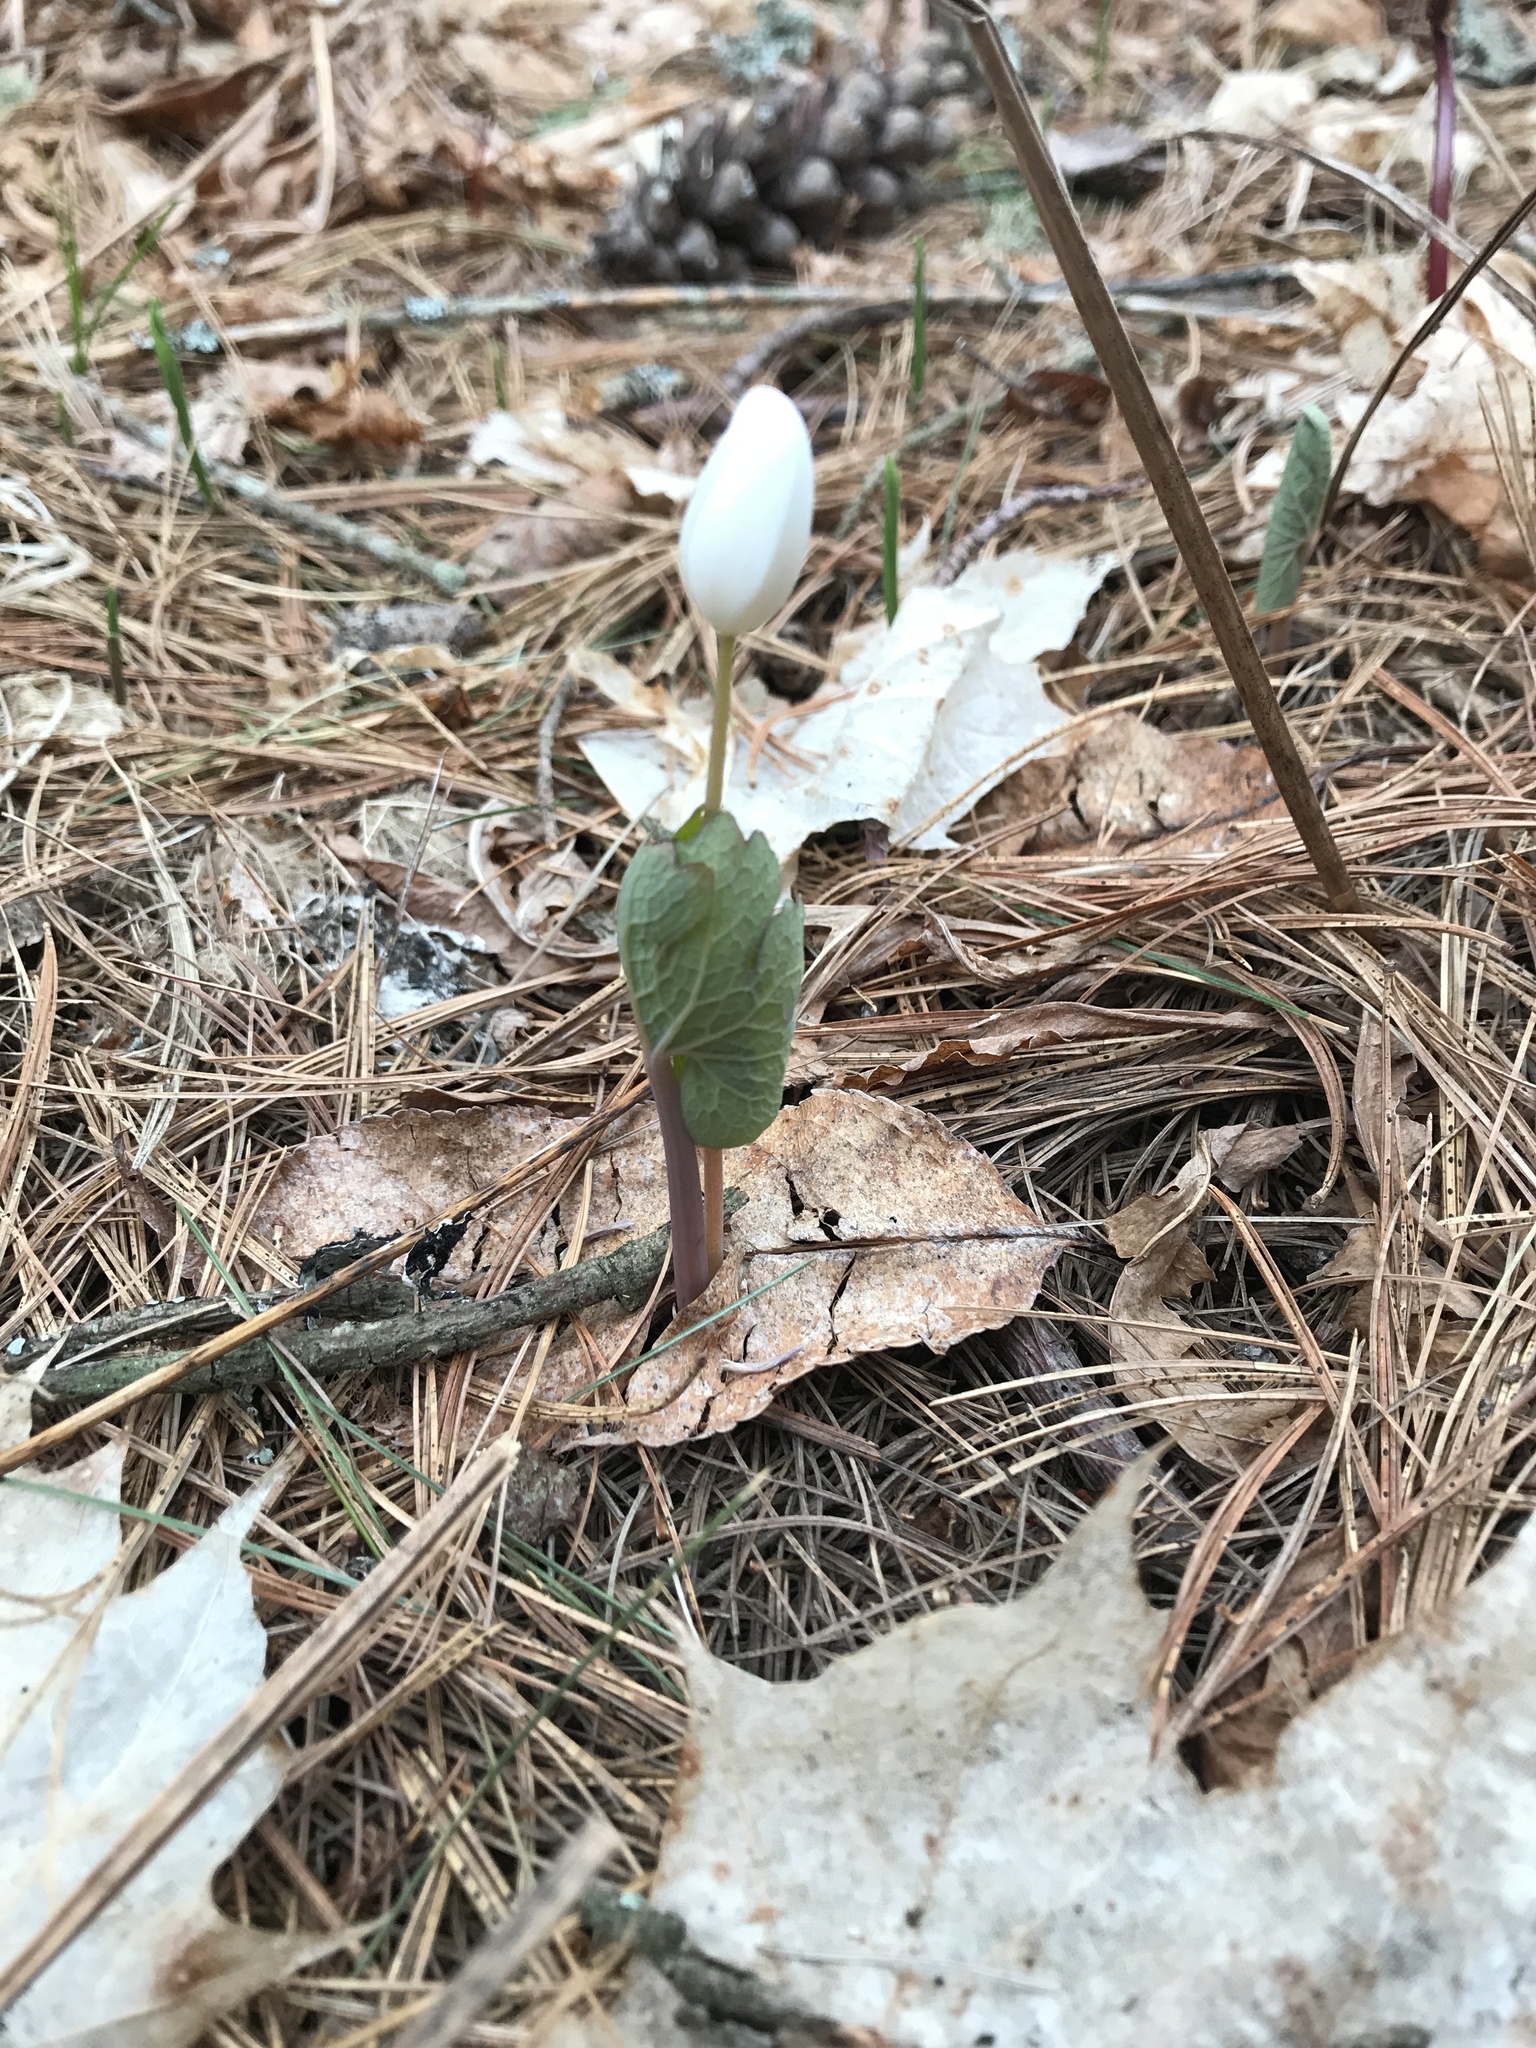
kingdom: Plantae
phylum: Tracheophyta
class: Magnoliopsida
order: Ranunculales
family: Papaveraceae
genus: Sanguinaria
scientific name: Sanguinaria canadensis
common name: Bloodroot
